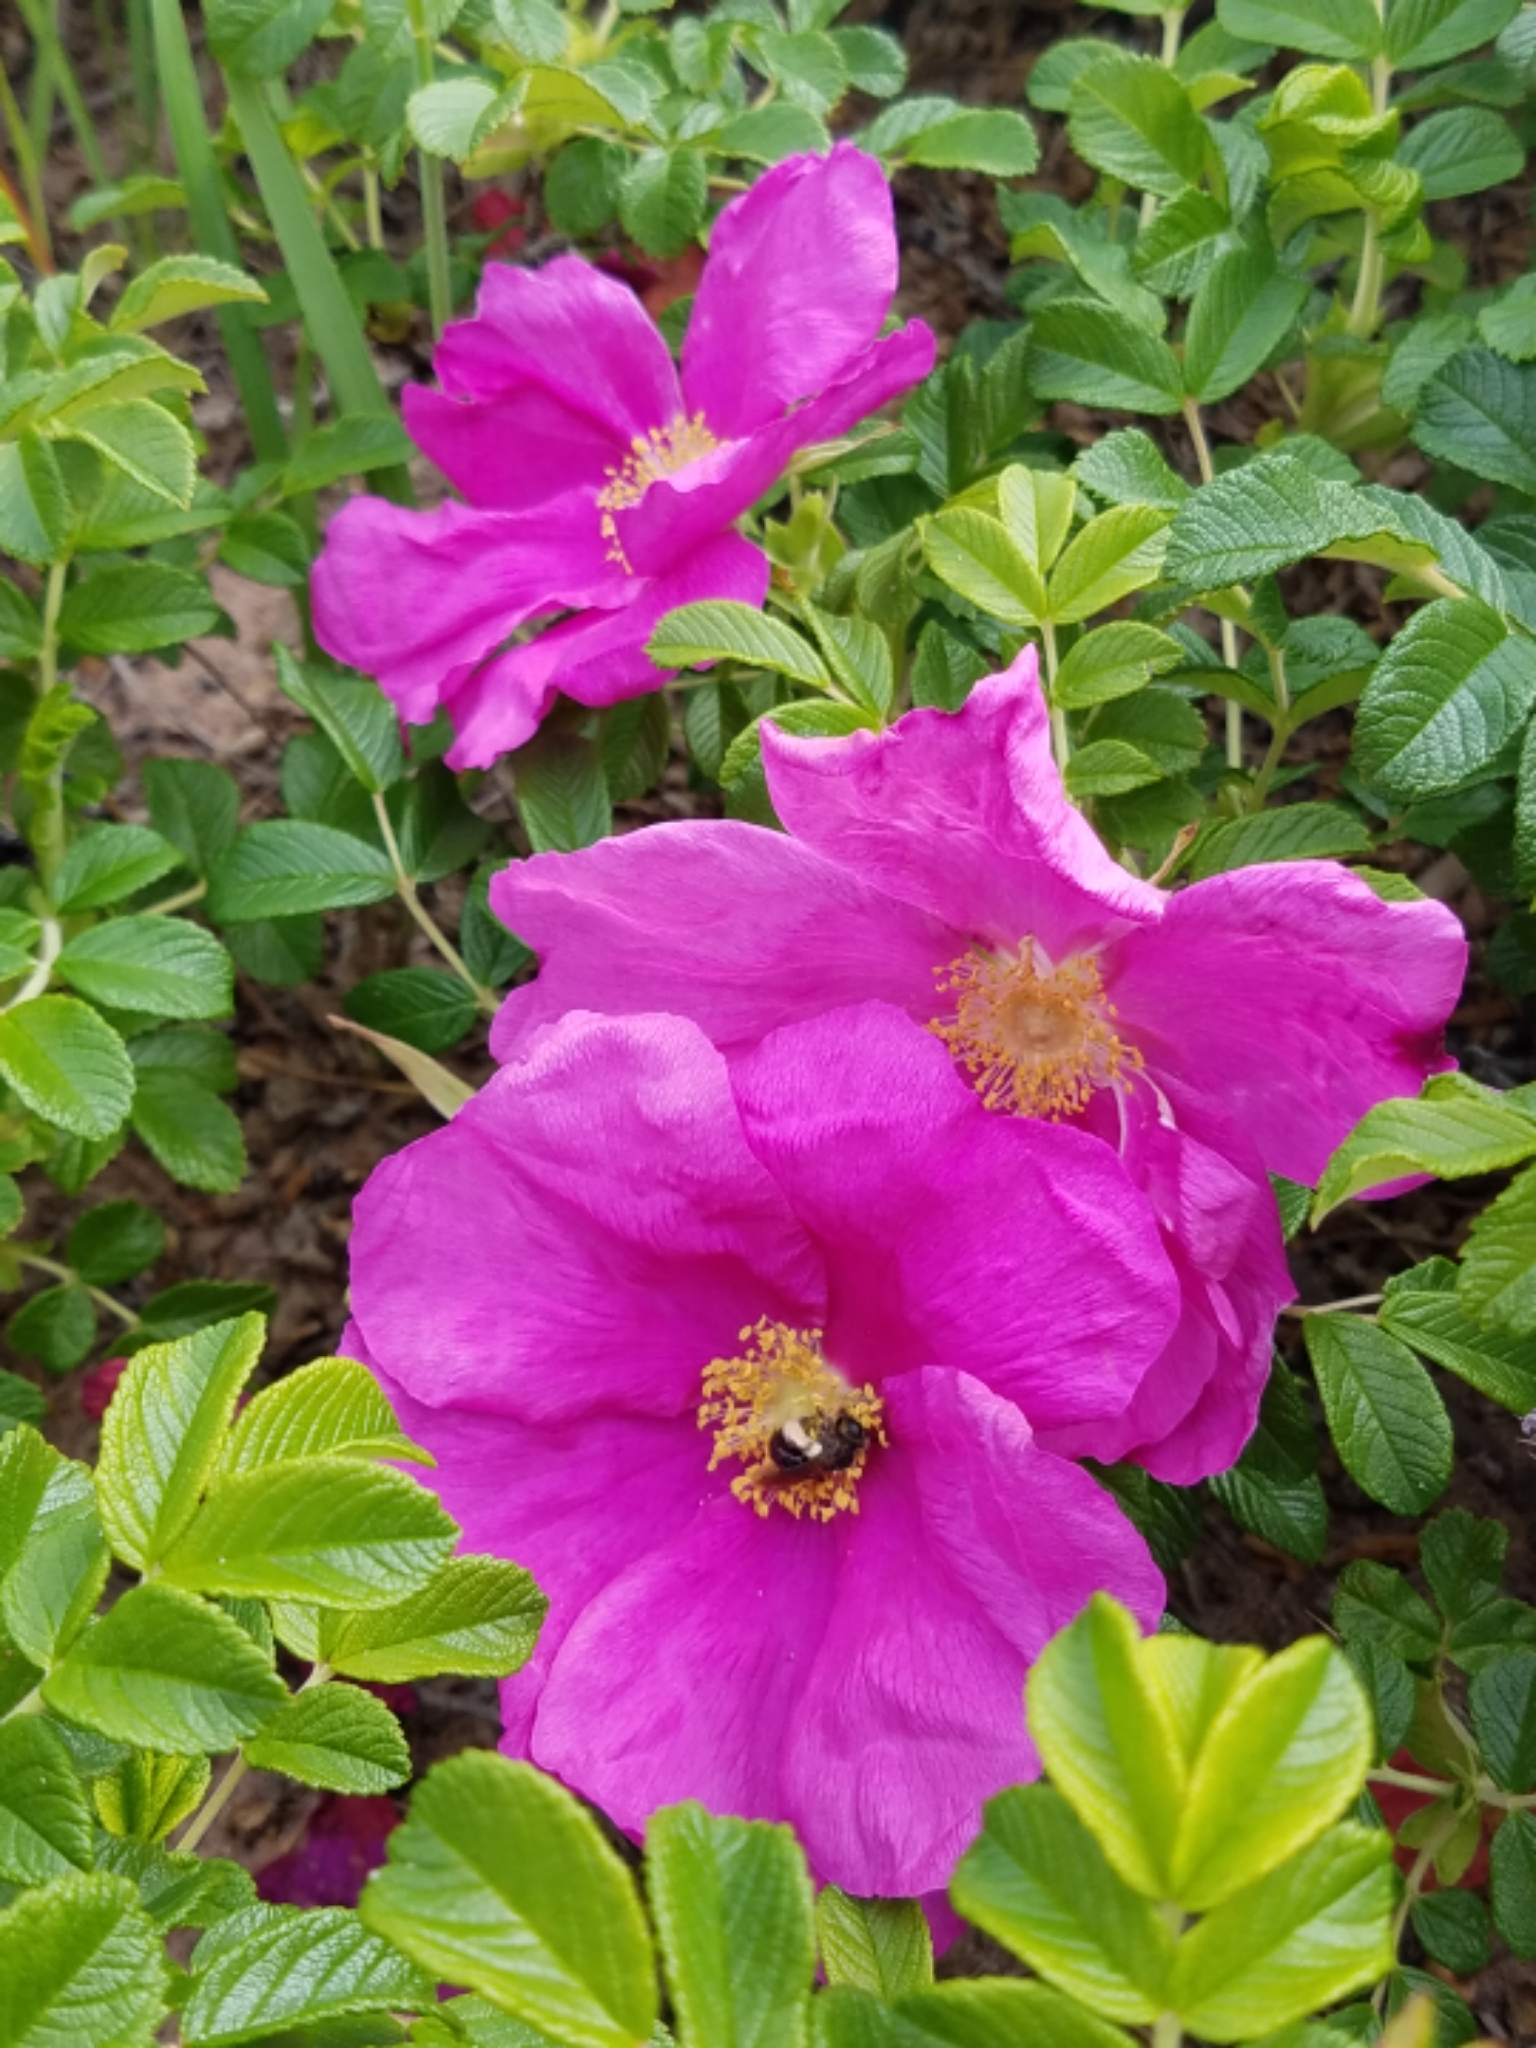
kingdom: Plantae
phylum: Tracheophyta
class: Magnoliopsida
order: Rosales
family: Rosaceae
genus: Rosa
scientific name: Rosa rugosa
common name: Japanese rose
